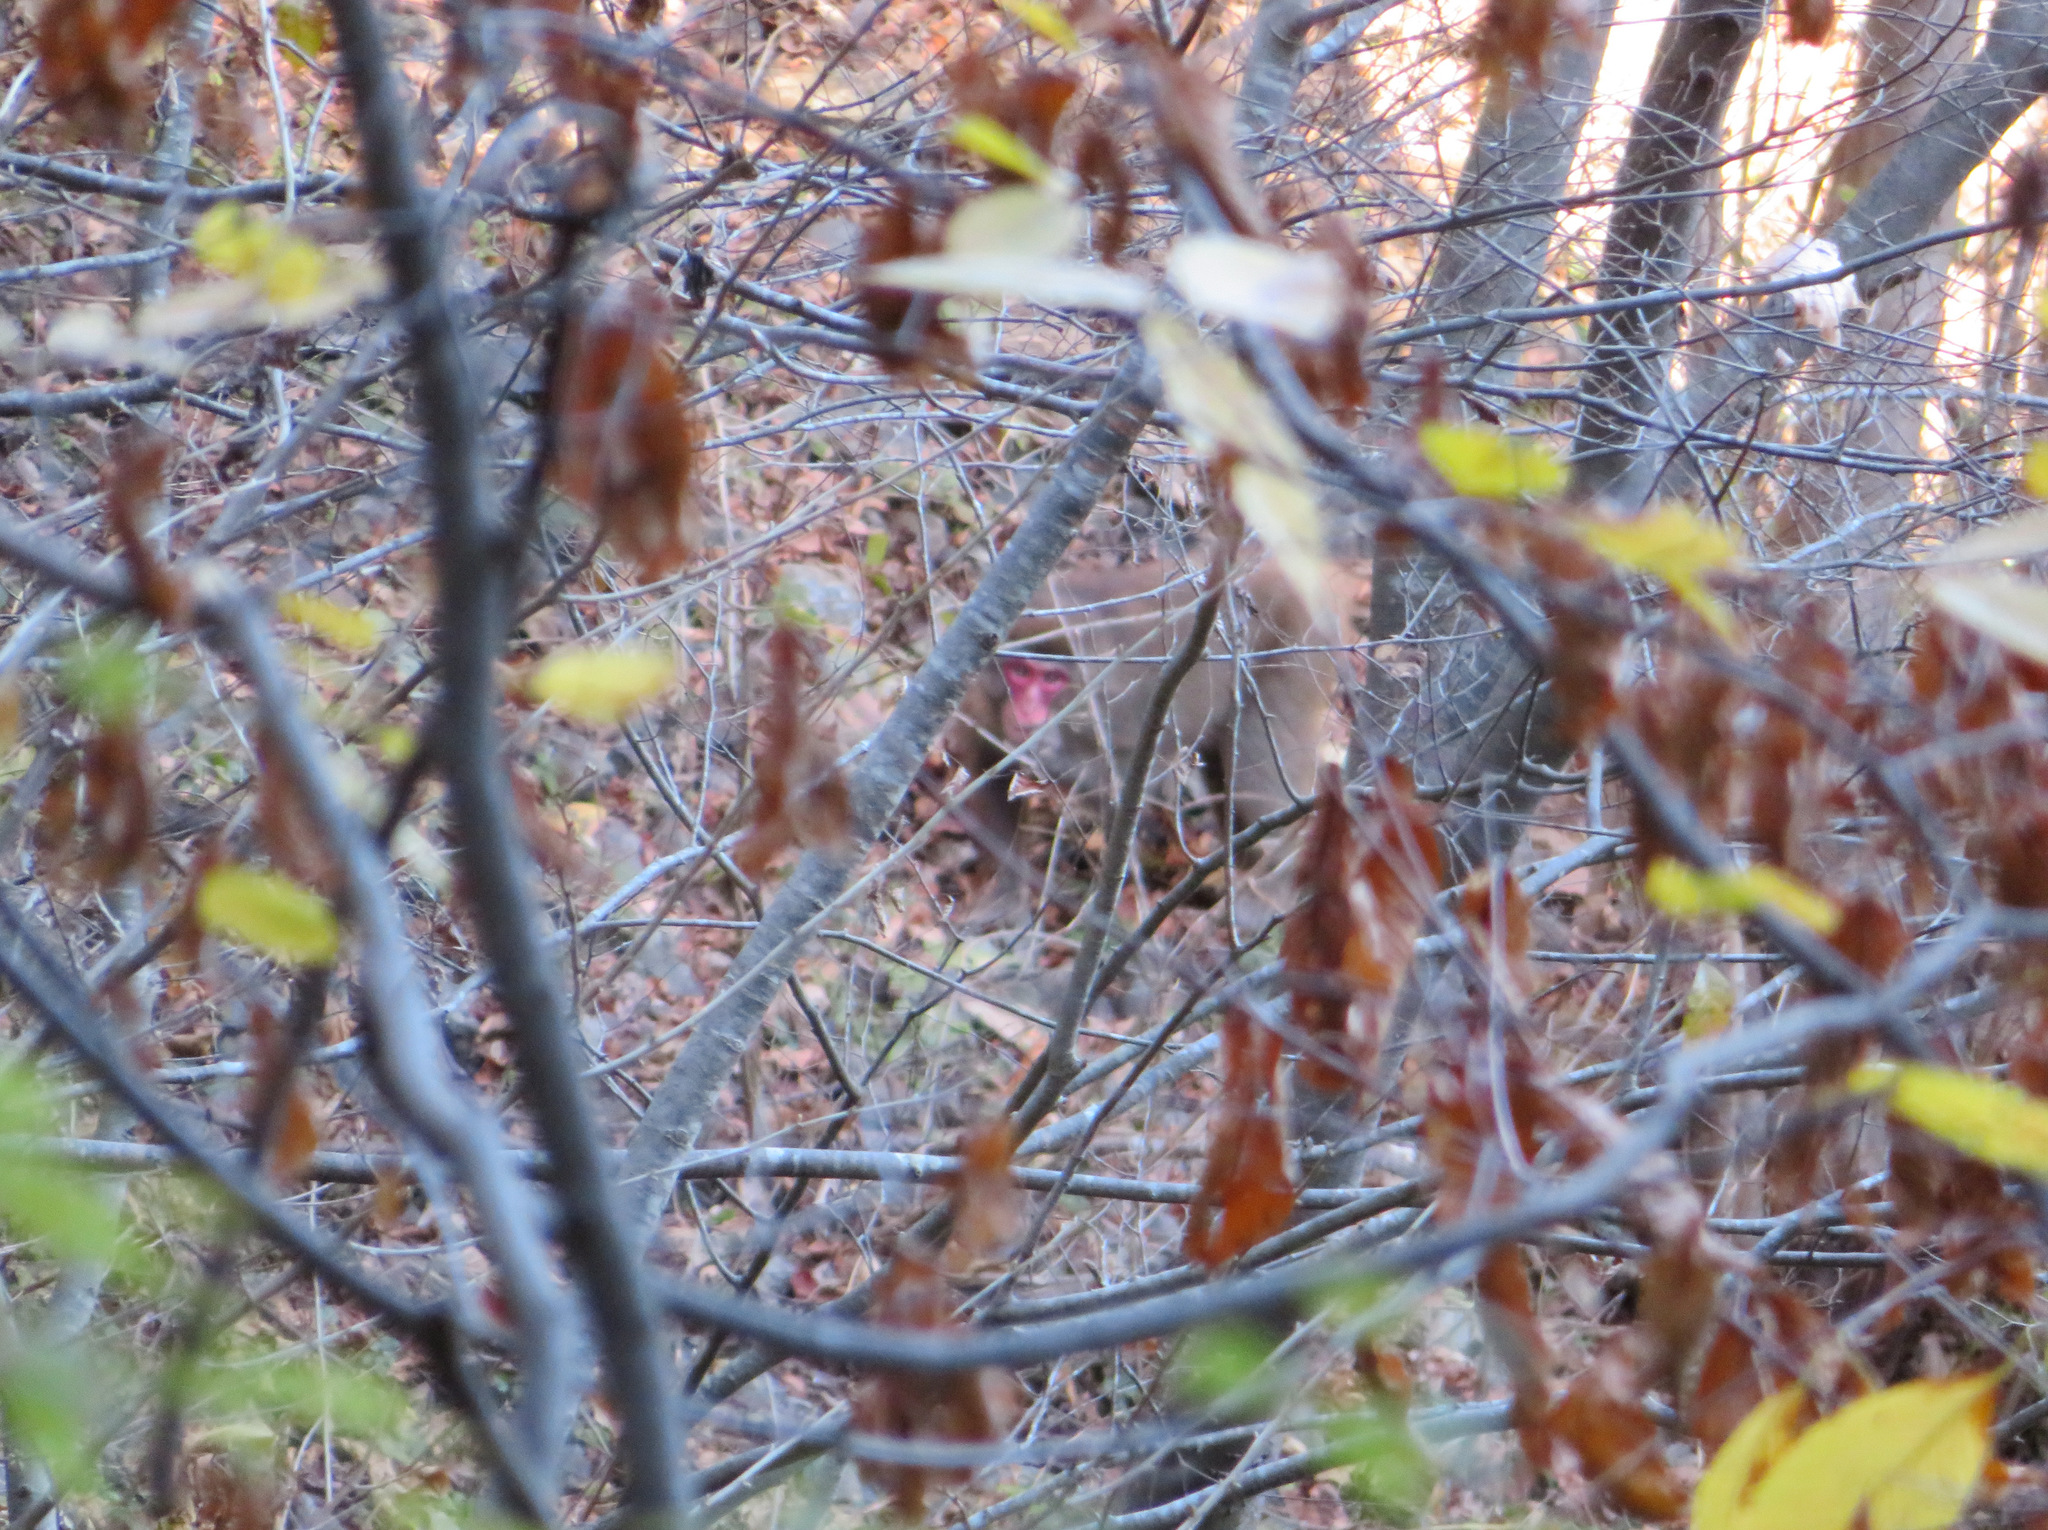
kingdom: Animalia
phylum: Chordata
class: Mammalia
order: Primates
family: Cercopithecidae
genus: Macaca
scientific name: Macaca fuscata
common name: Japanese macaque
